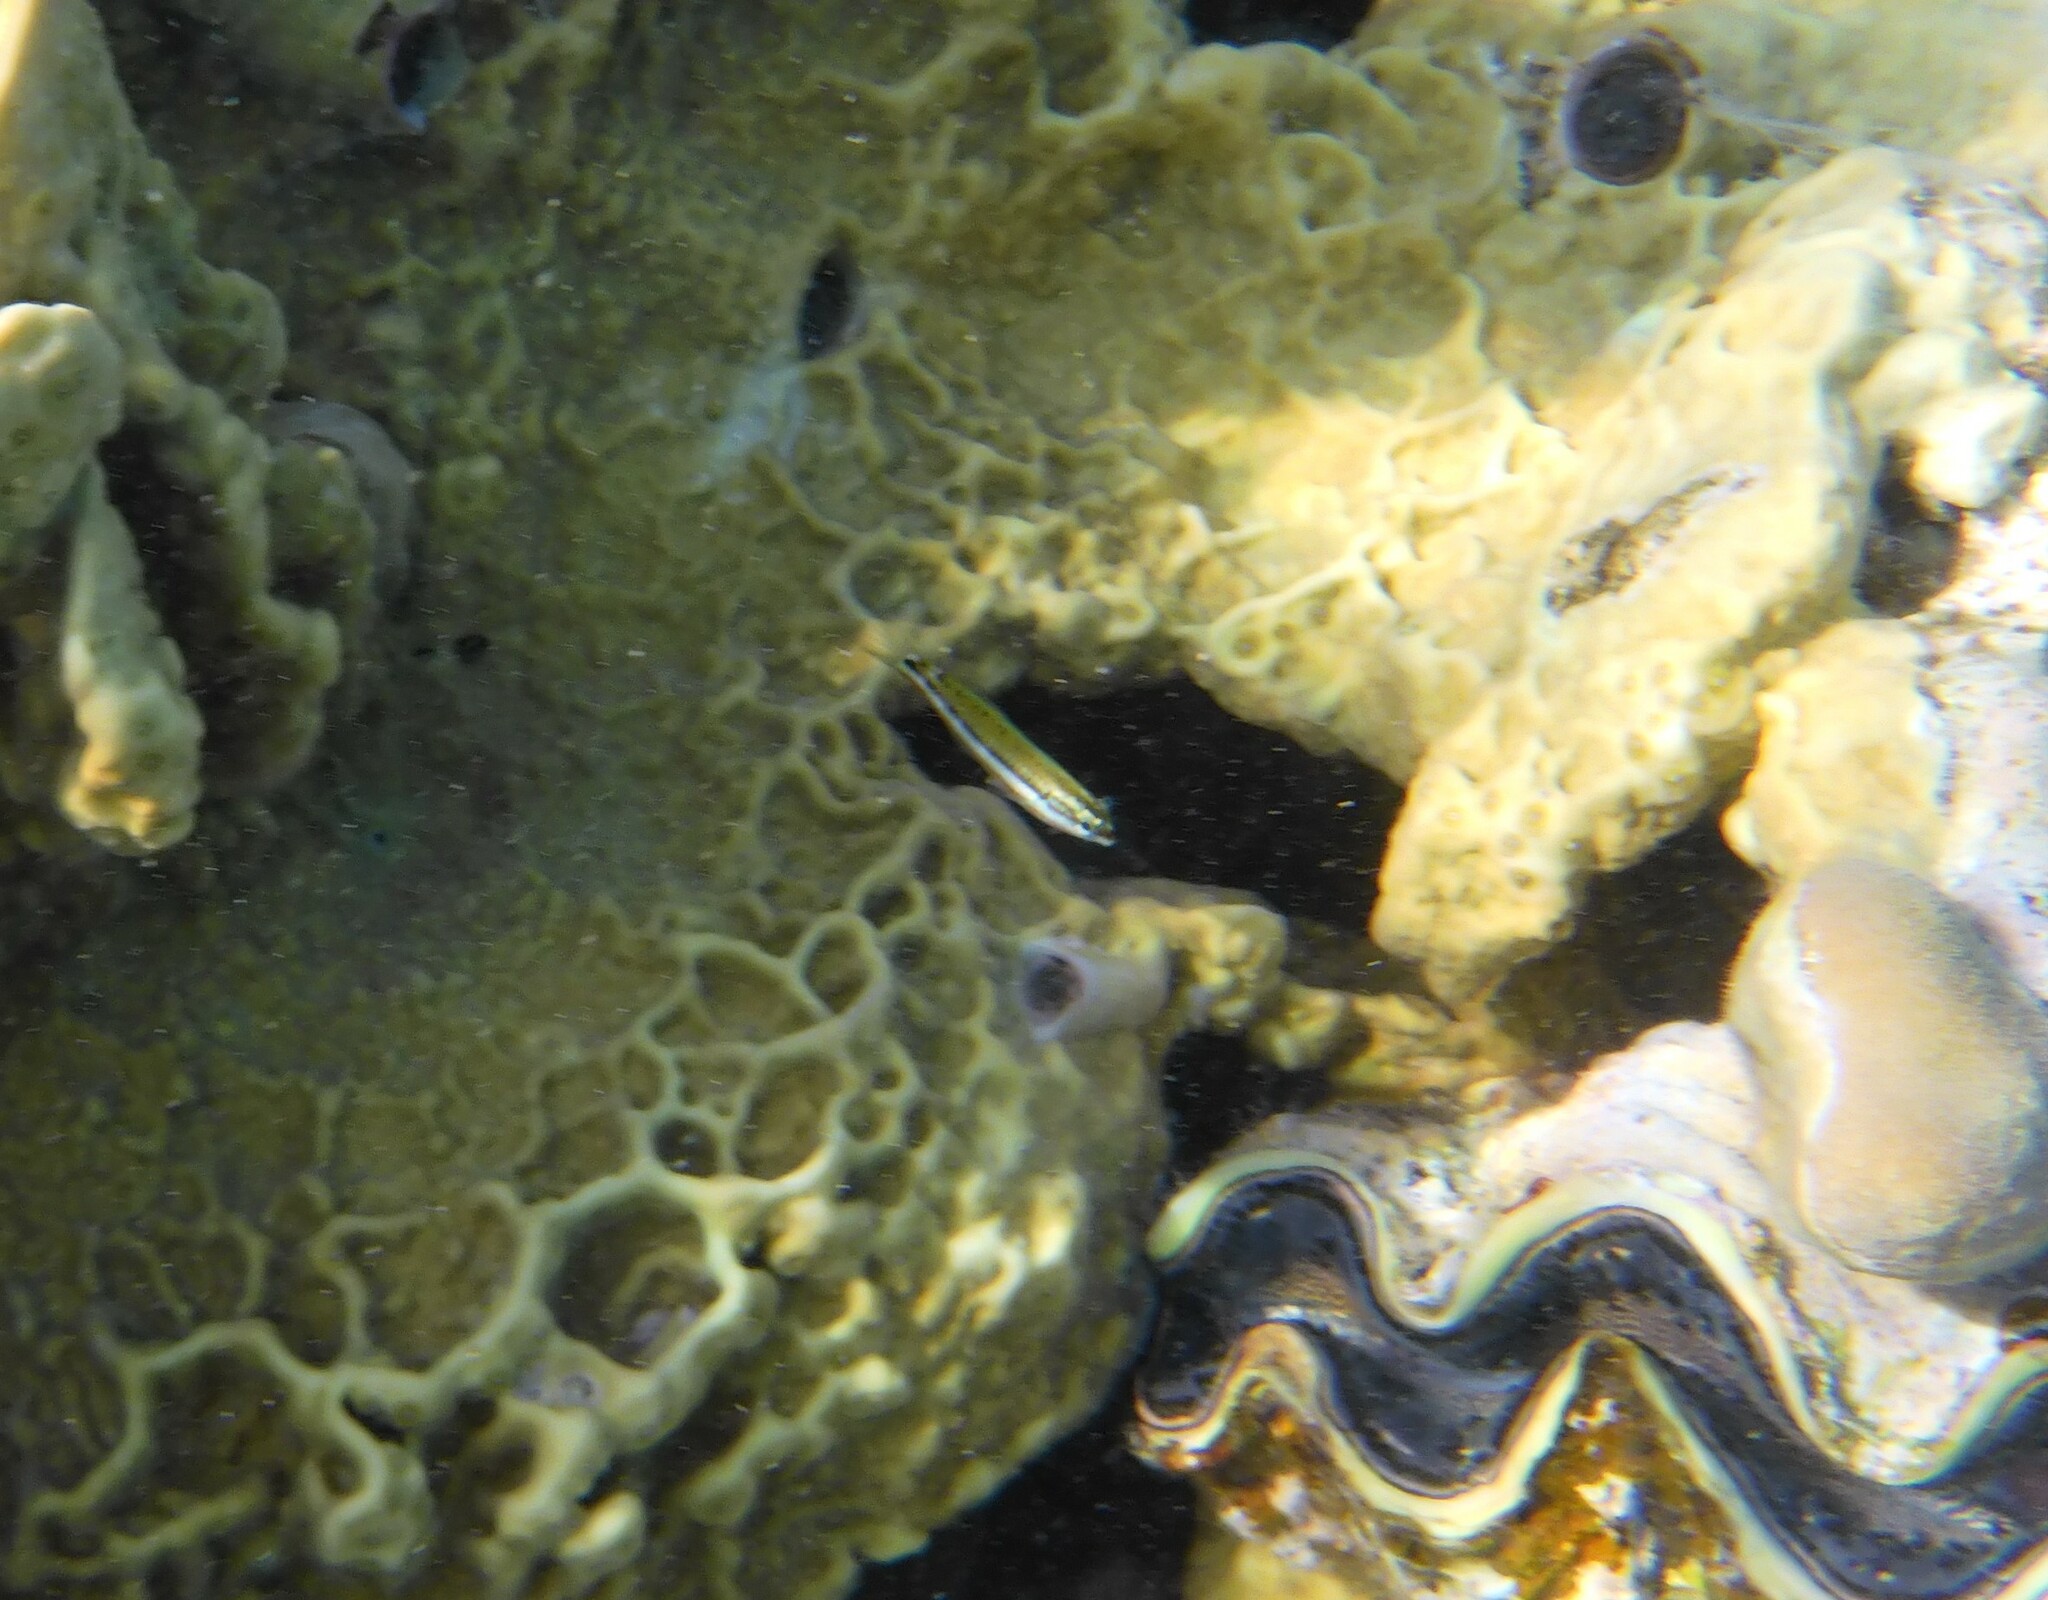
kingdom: Animalia
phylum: Chordata
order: Perciformes
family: Labridae
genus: Thalassoma
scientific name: Thalassoma rueppellii
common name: Klunzinger's wrasse
